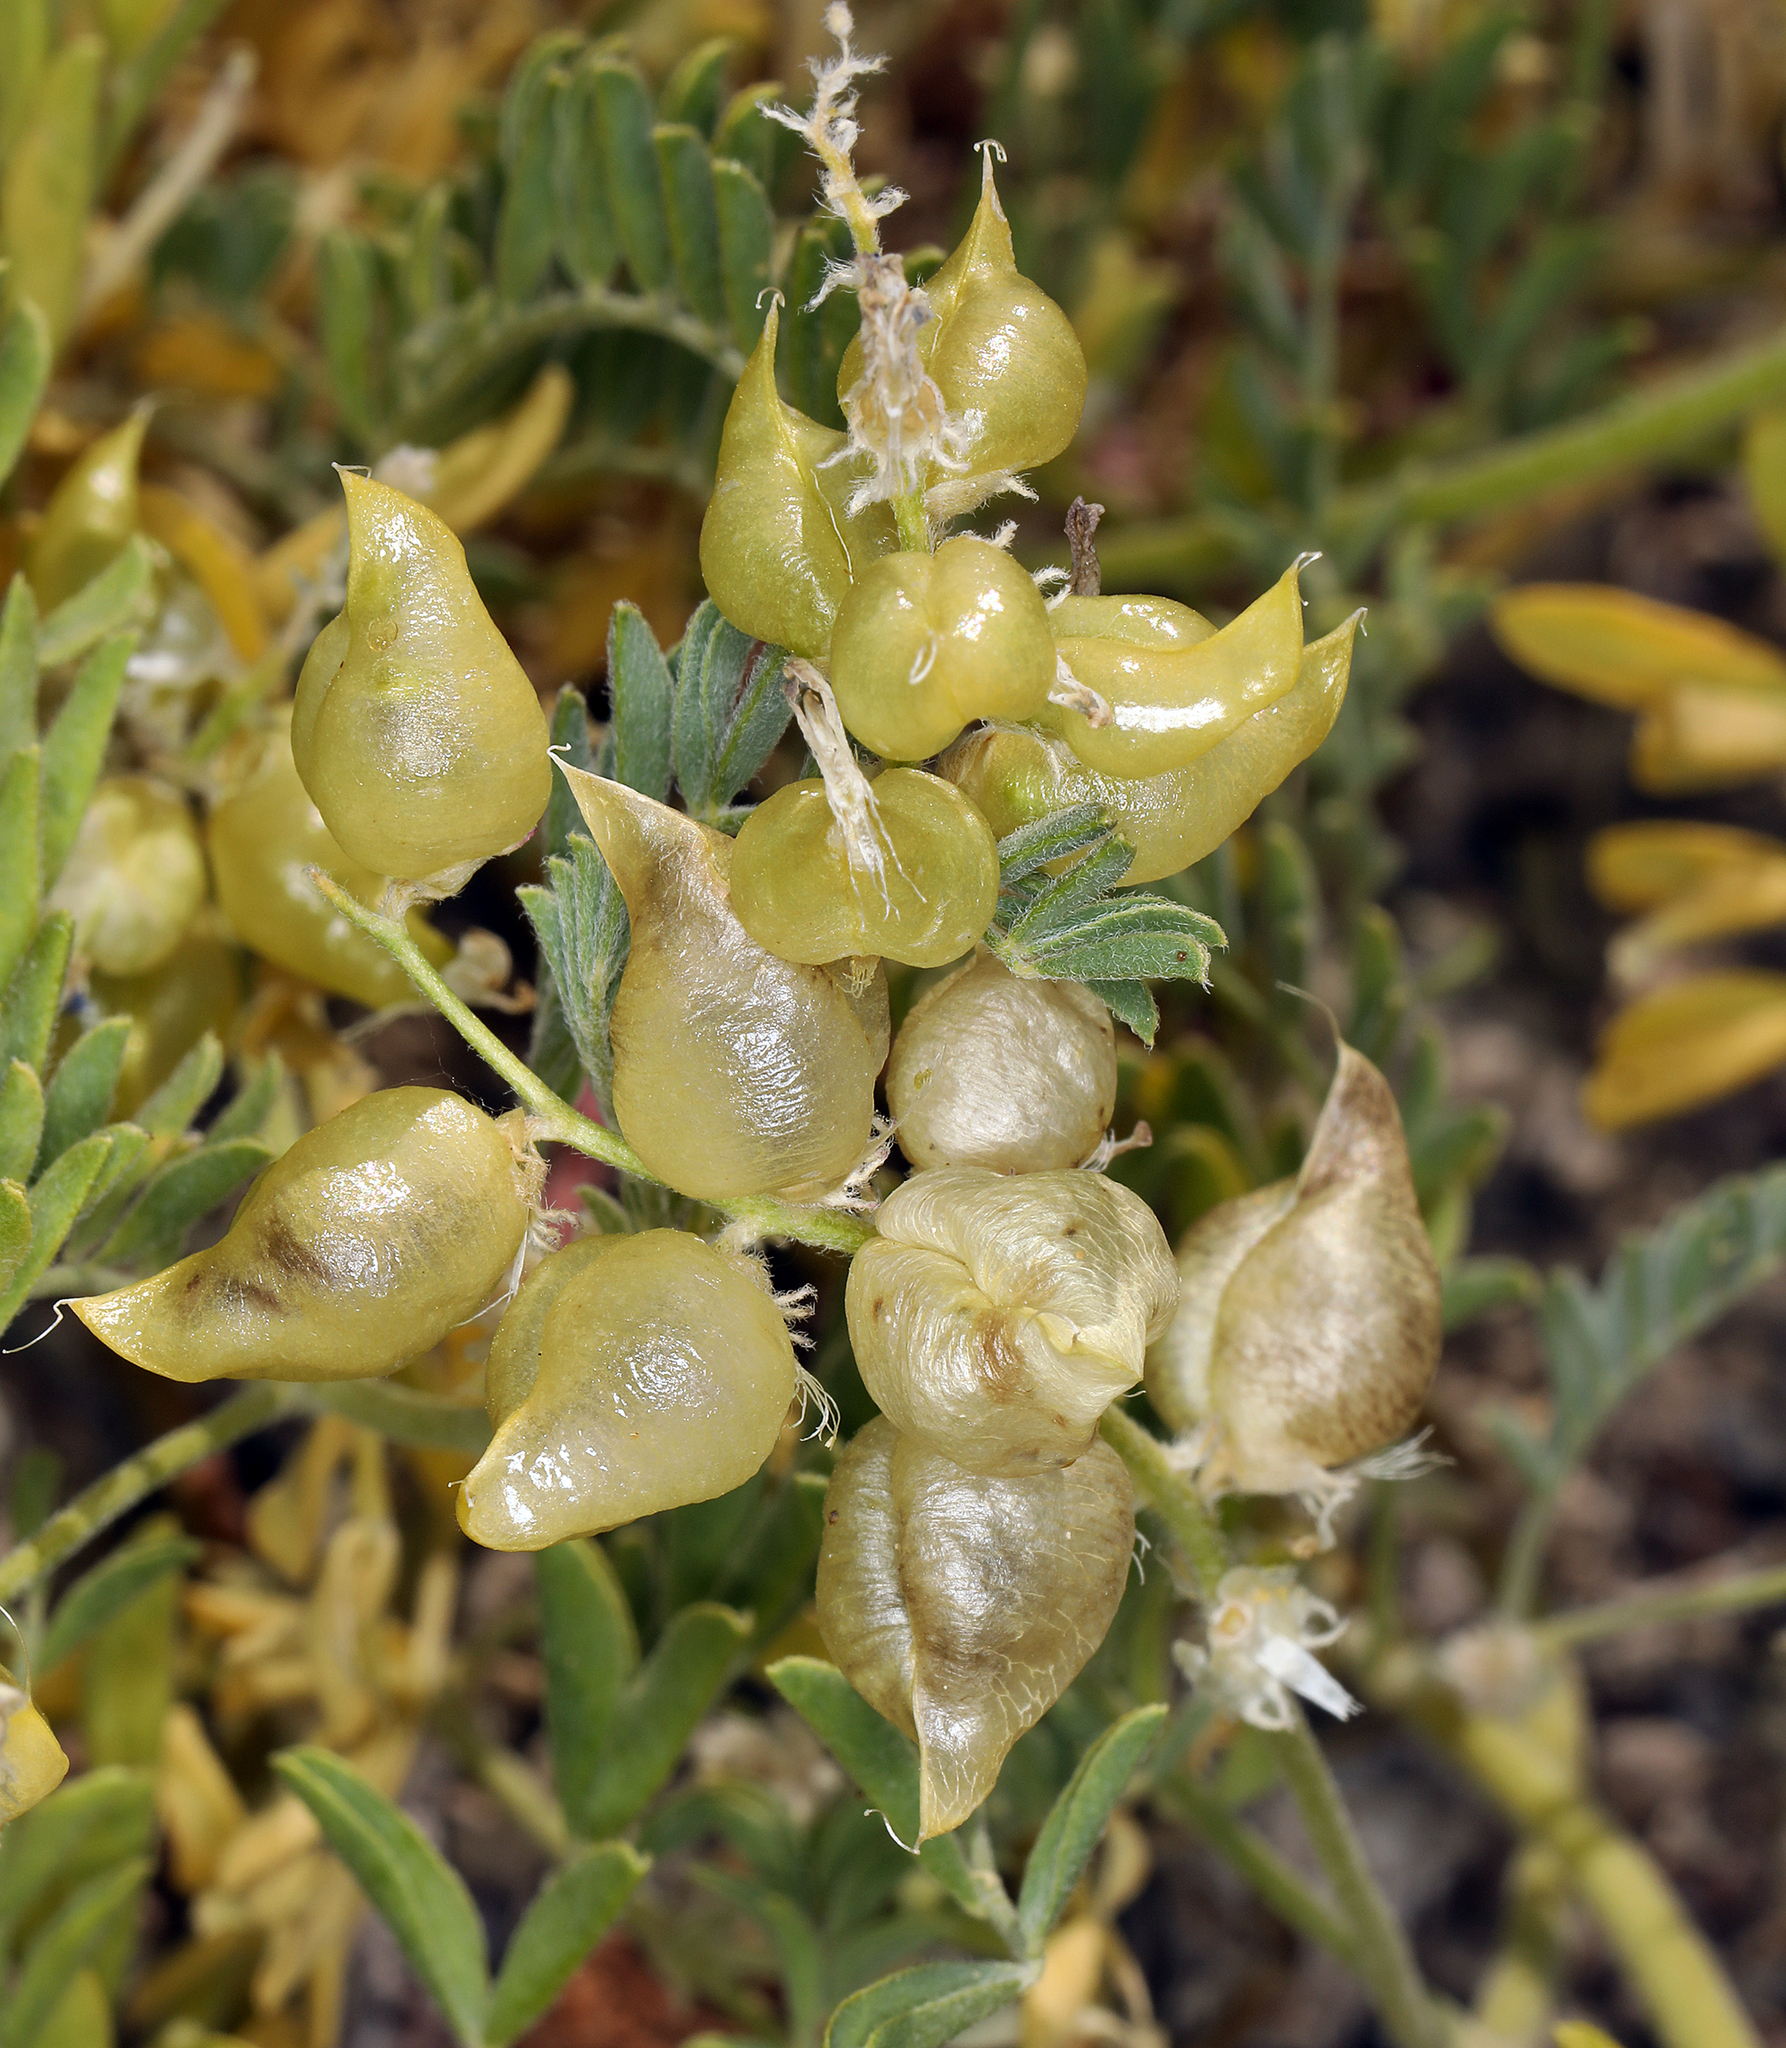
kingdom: Plantae
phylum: Tracheophyta
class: Magnoliopsida
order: Fabales
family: Fabaceae
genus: Astragalus
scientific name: Astragalus lentiginosus
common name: Freckled milkvetch
